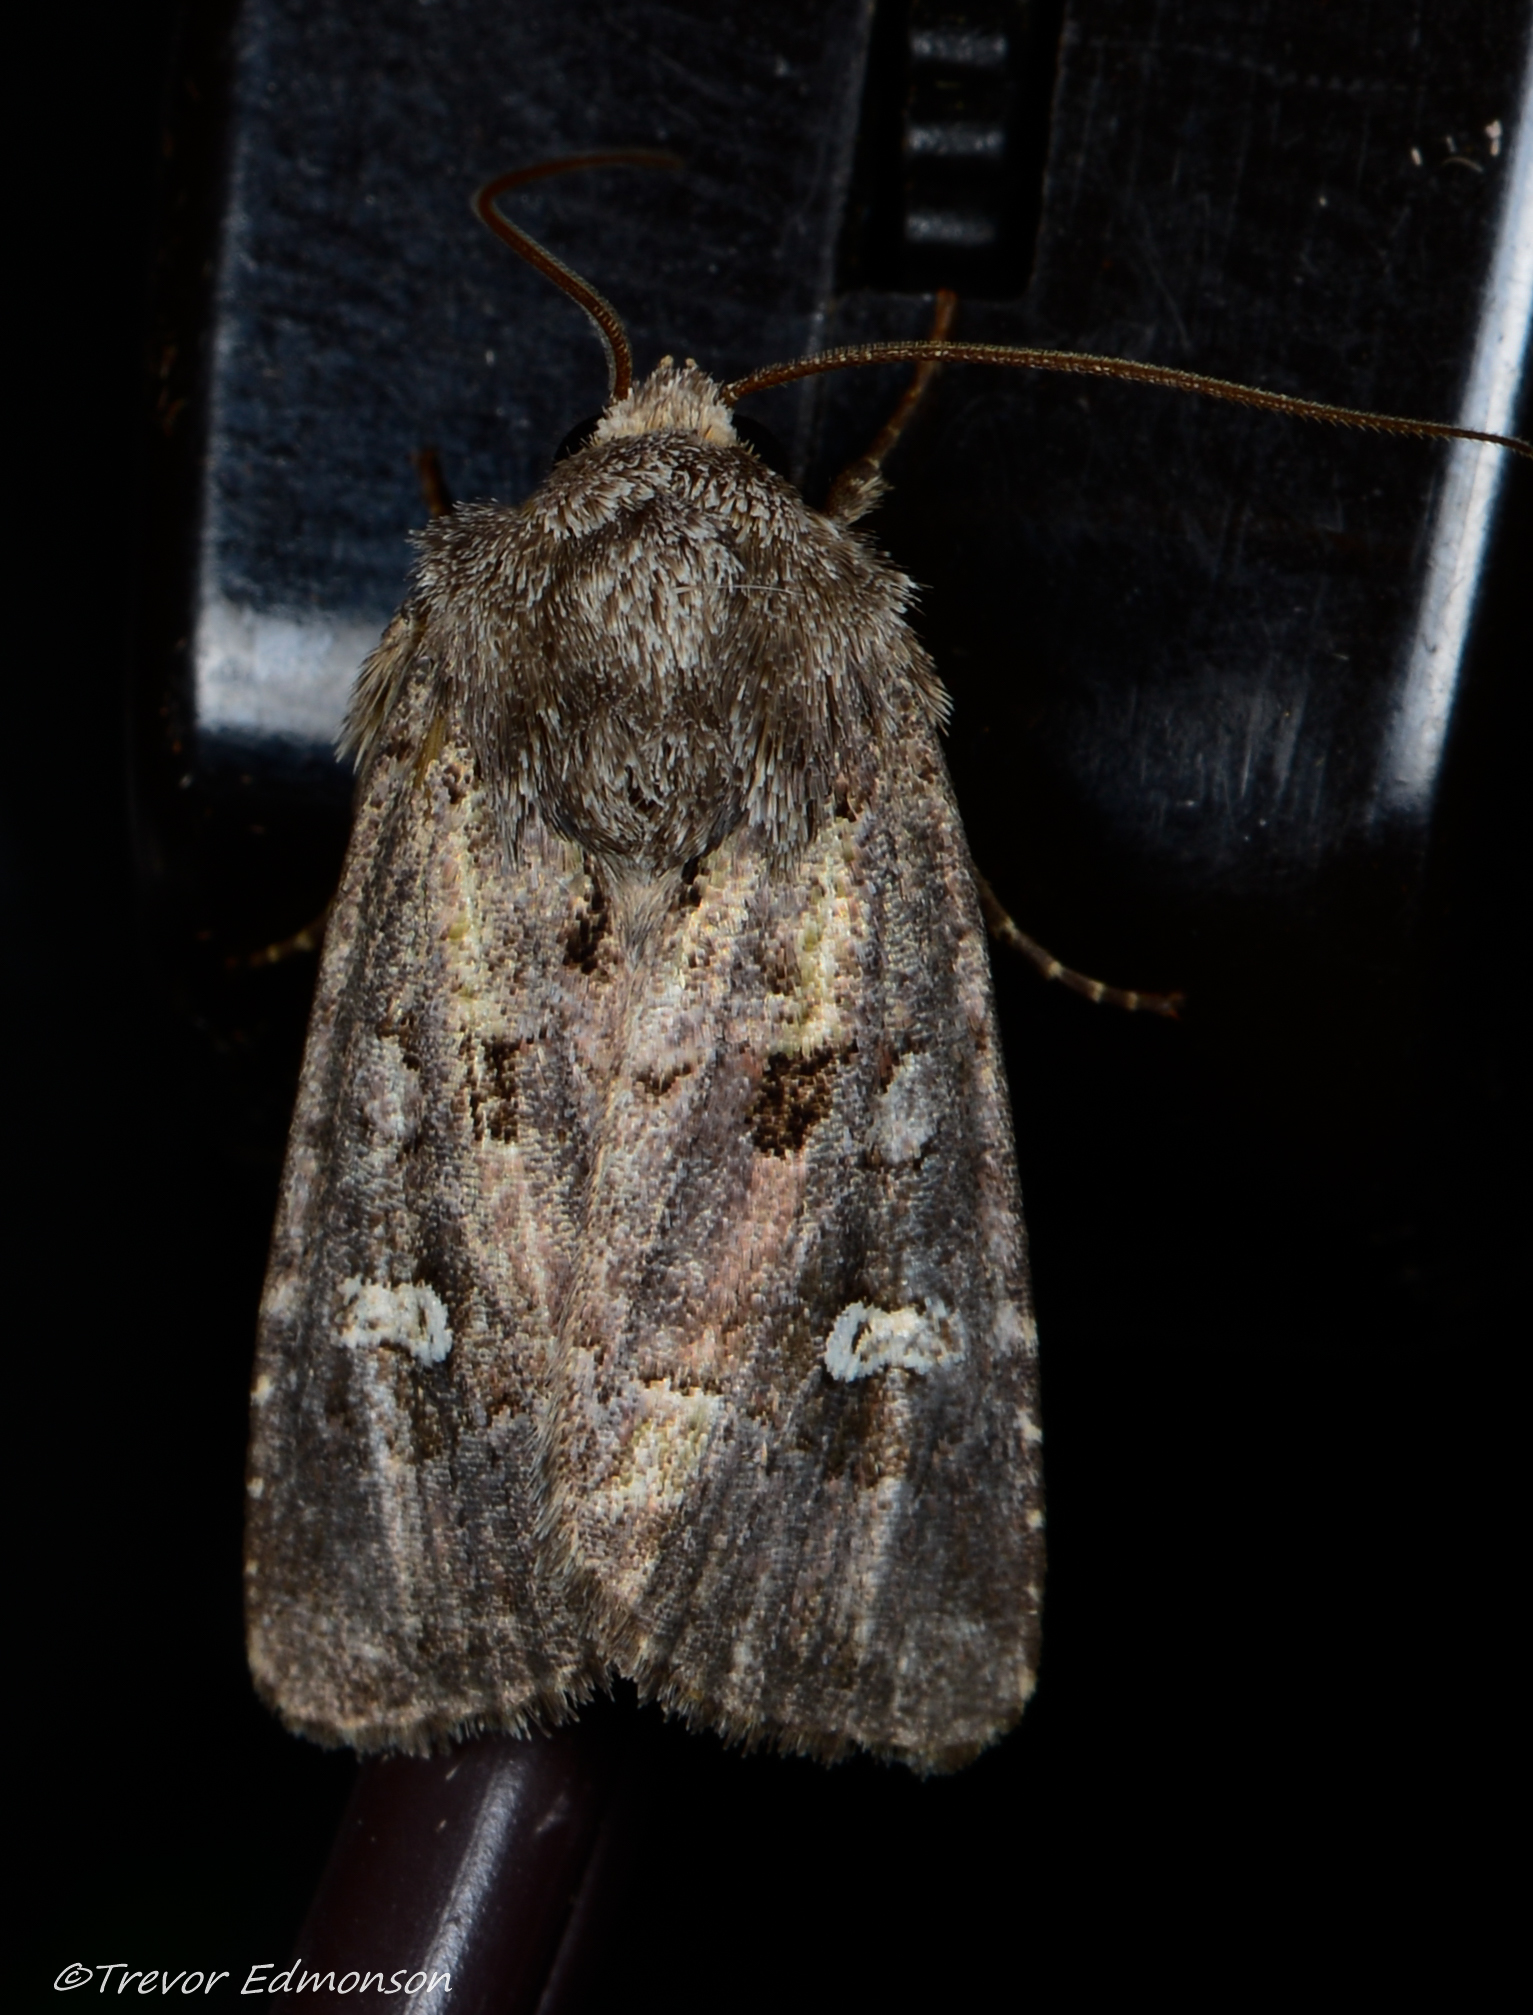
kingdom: Animalia
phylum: Arthropoda
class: Insecta
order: Lepidoptera
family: Noctuidae
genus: Lacinipolia
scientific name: Lacinipolia renigera
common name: Kidney-spotted minor
